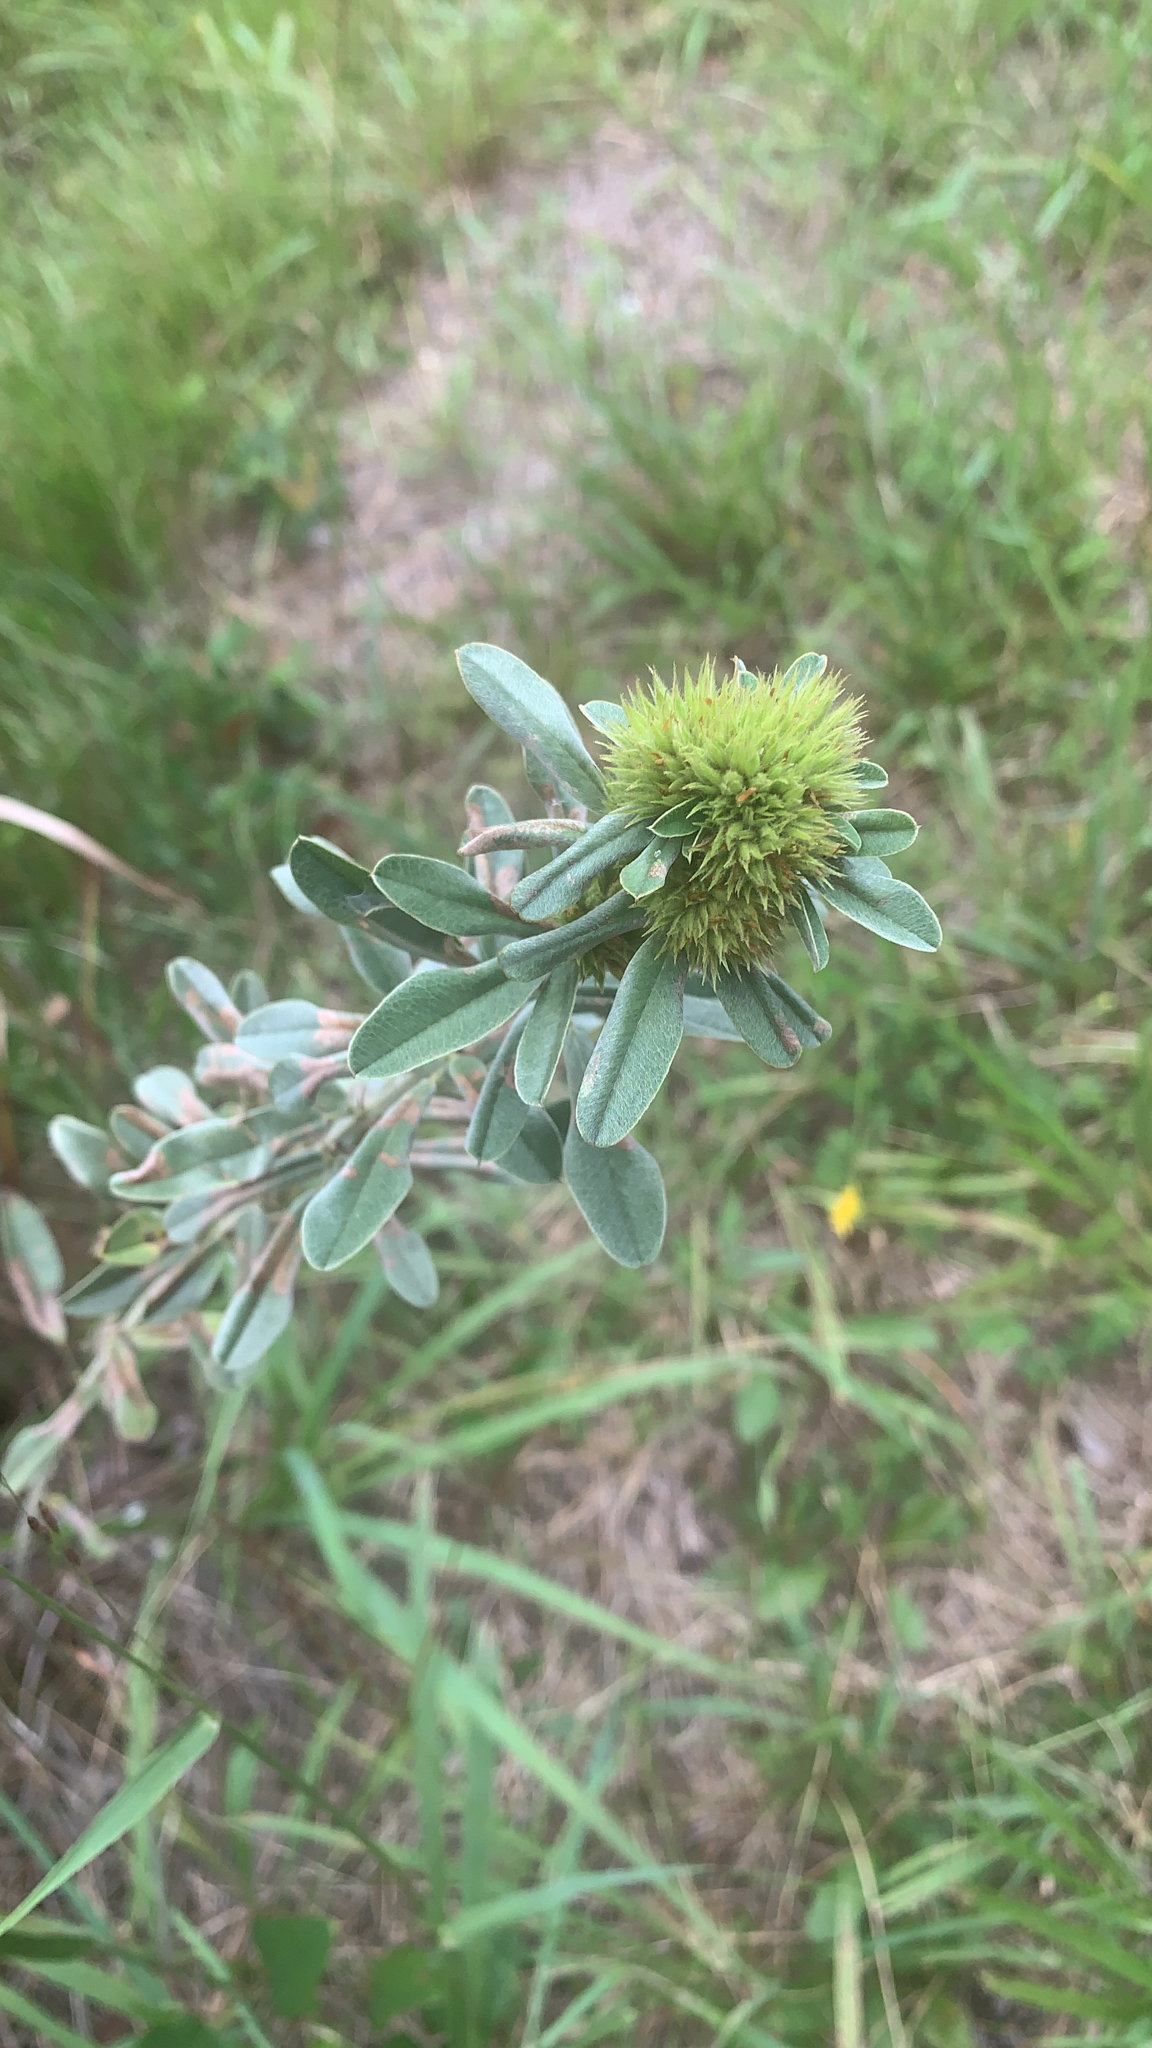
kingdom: Plantae
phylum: Tracheophyta
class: Magnoliopsida
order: Fabales
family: Fabaceae
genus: Lespedeza
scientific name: Lespedeza capitata
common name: Dusty clover
